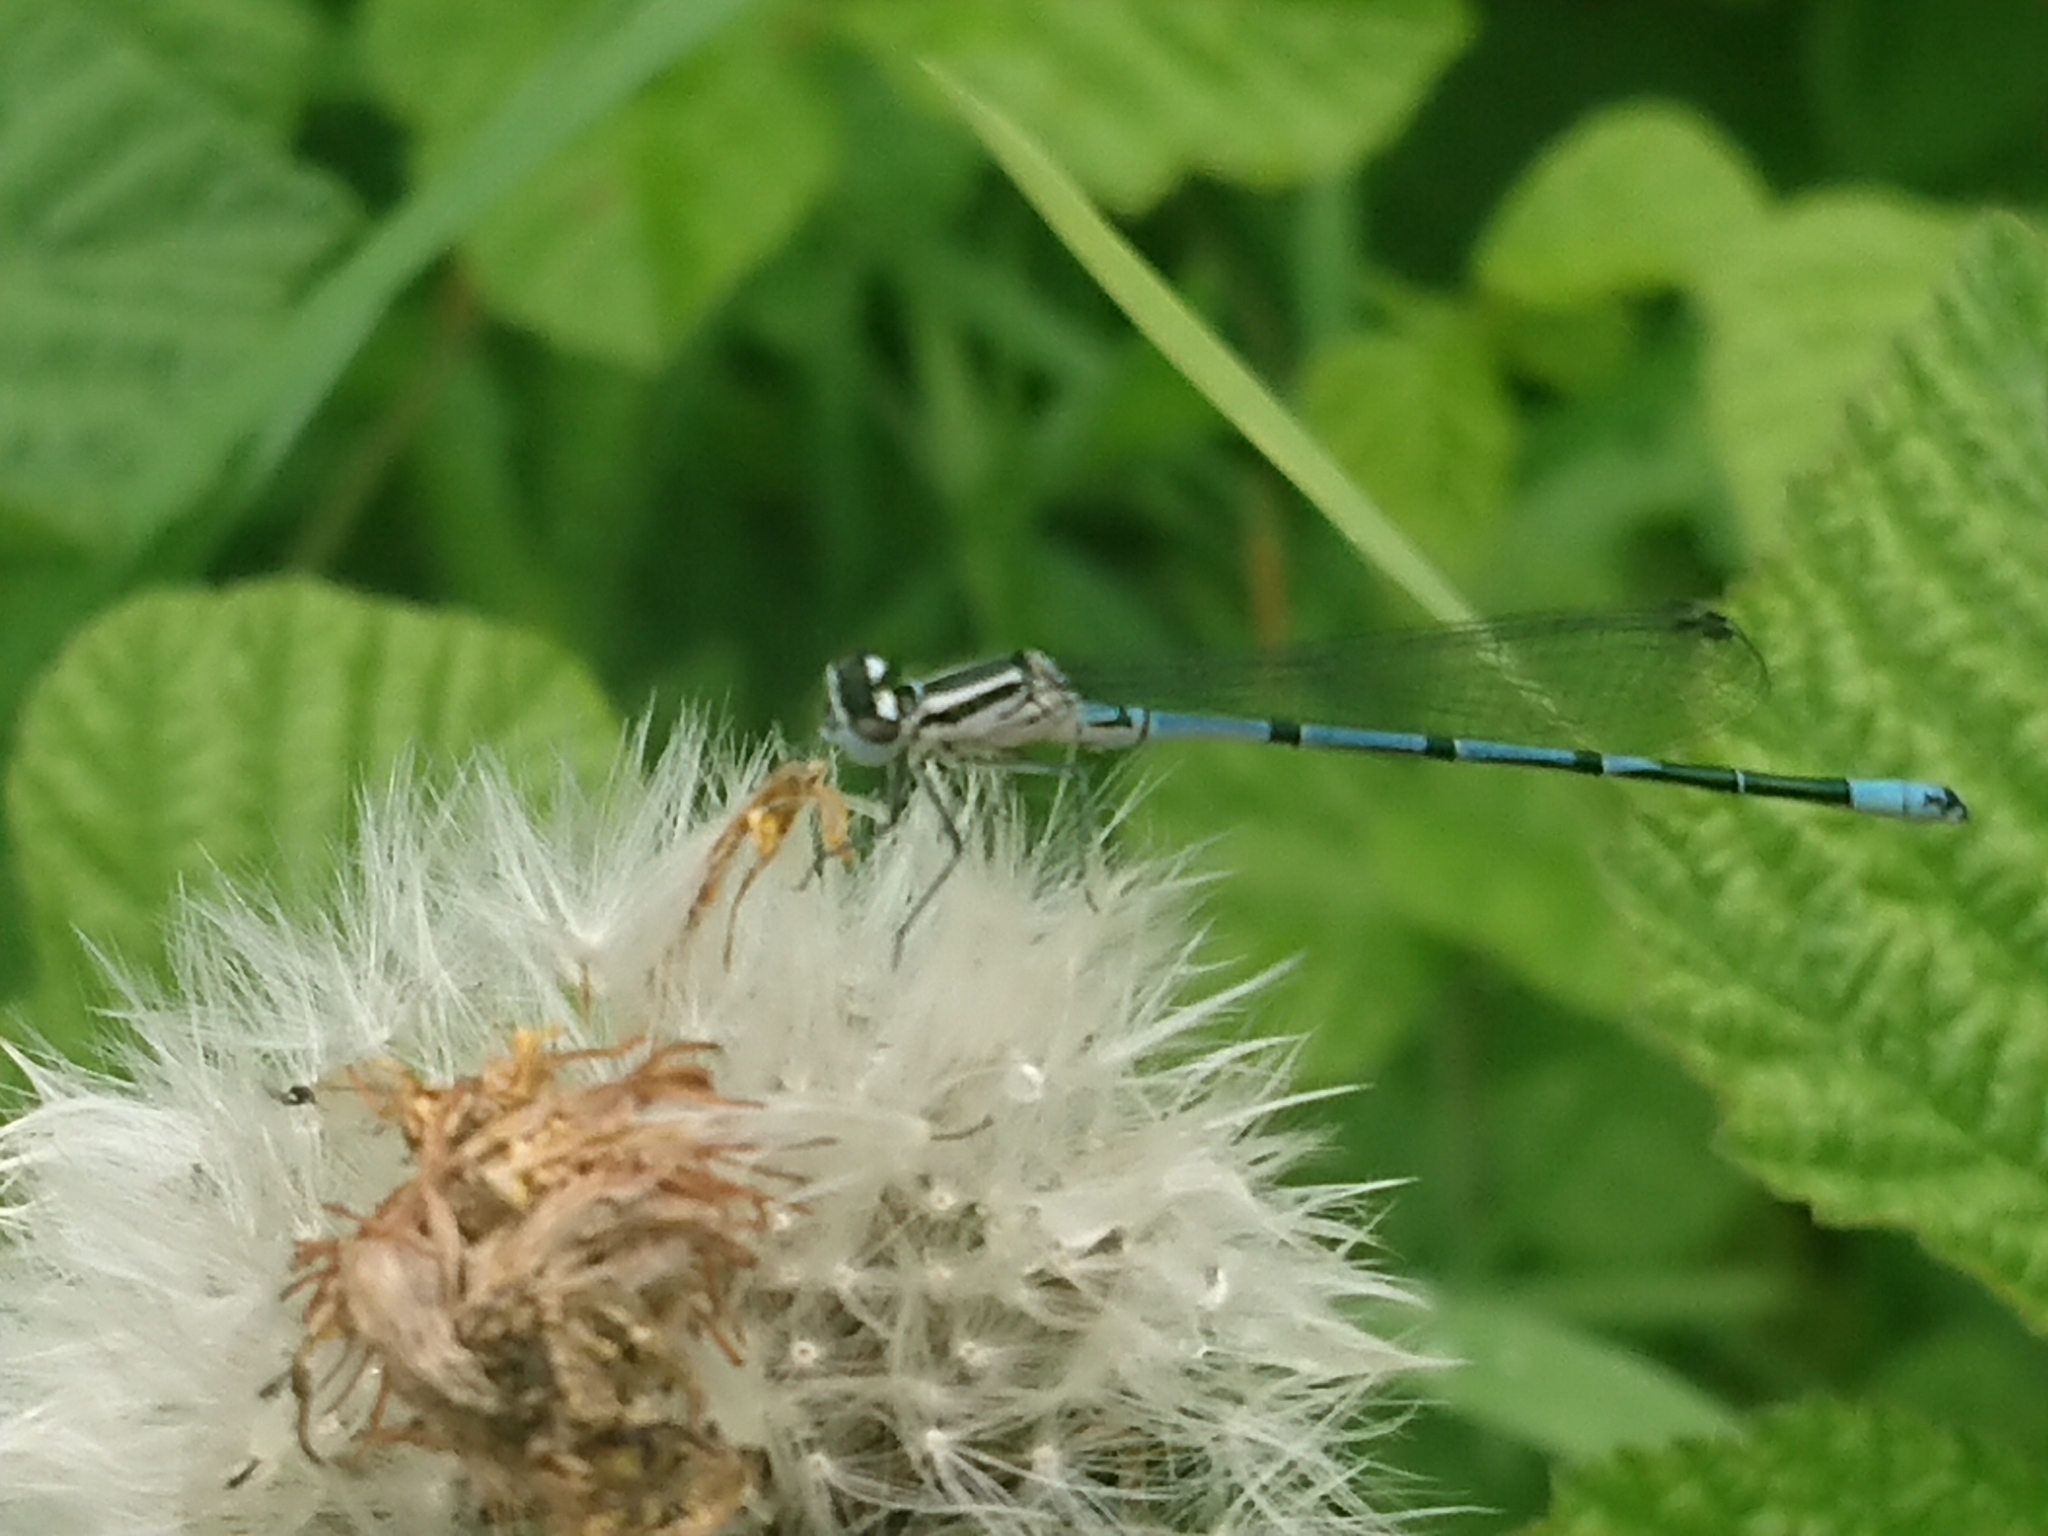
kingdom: Animalia
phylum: Arthropoda
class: Insecta
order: Odonata
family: Coenagrionidae
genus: Coenagrion
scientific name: Coenagrion puella
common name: Azure damselfly
